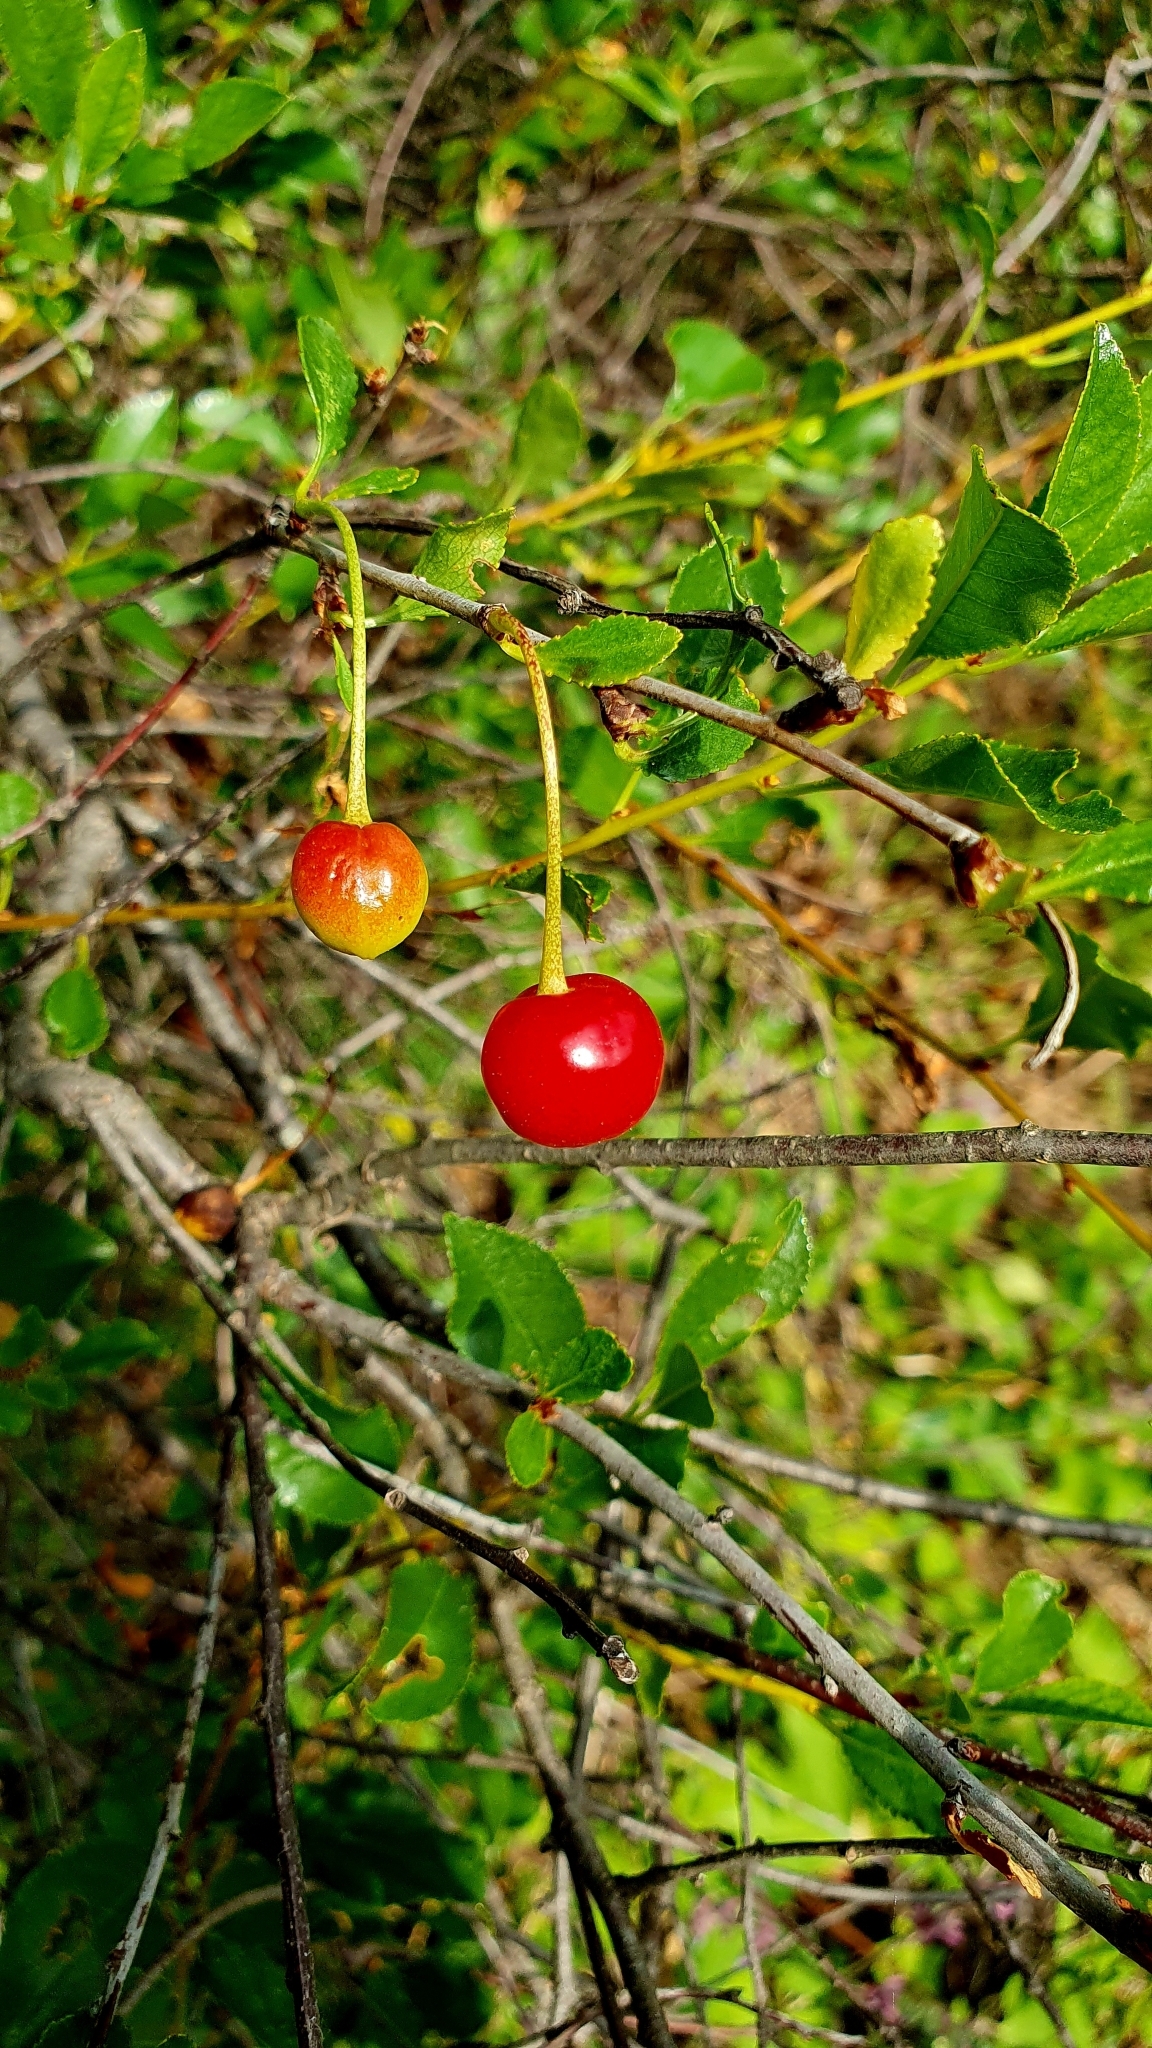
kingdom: Plantae
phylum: Tracheophyta
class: Magnoliopsida
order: Rosales
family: Rosaceae
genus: Prunus
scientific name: Prunus fruticosa
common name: European dwarf cherry
